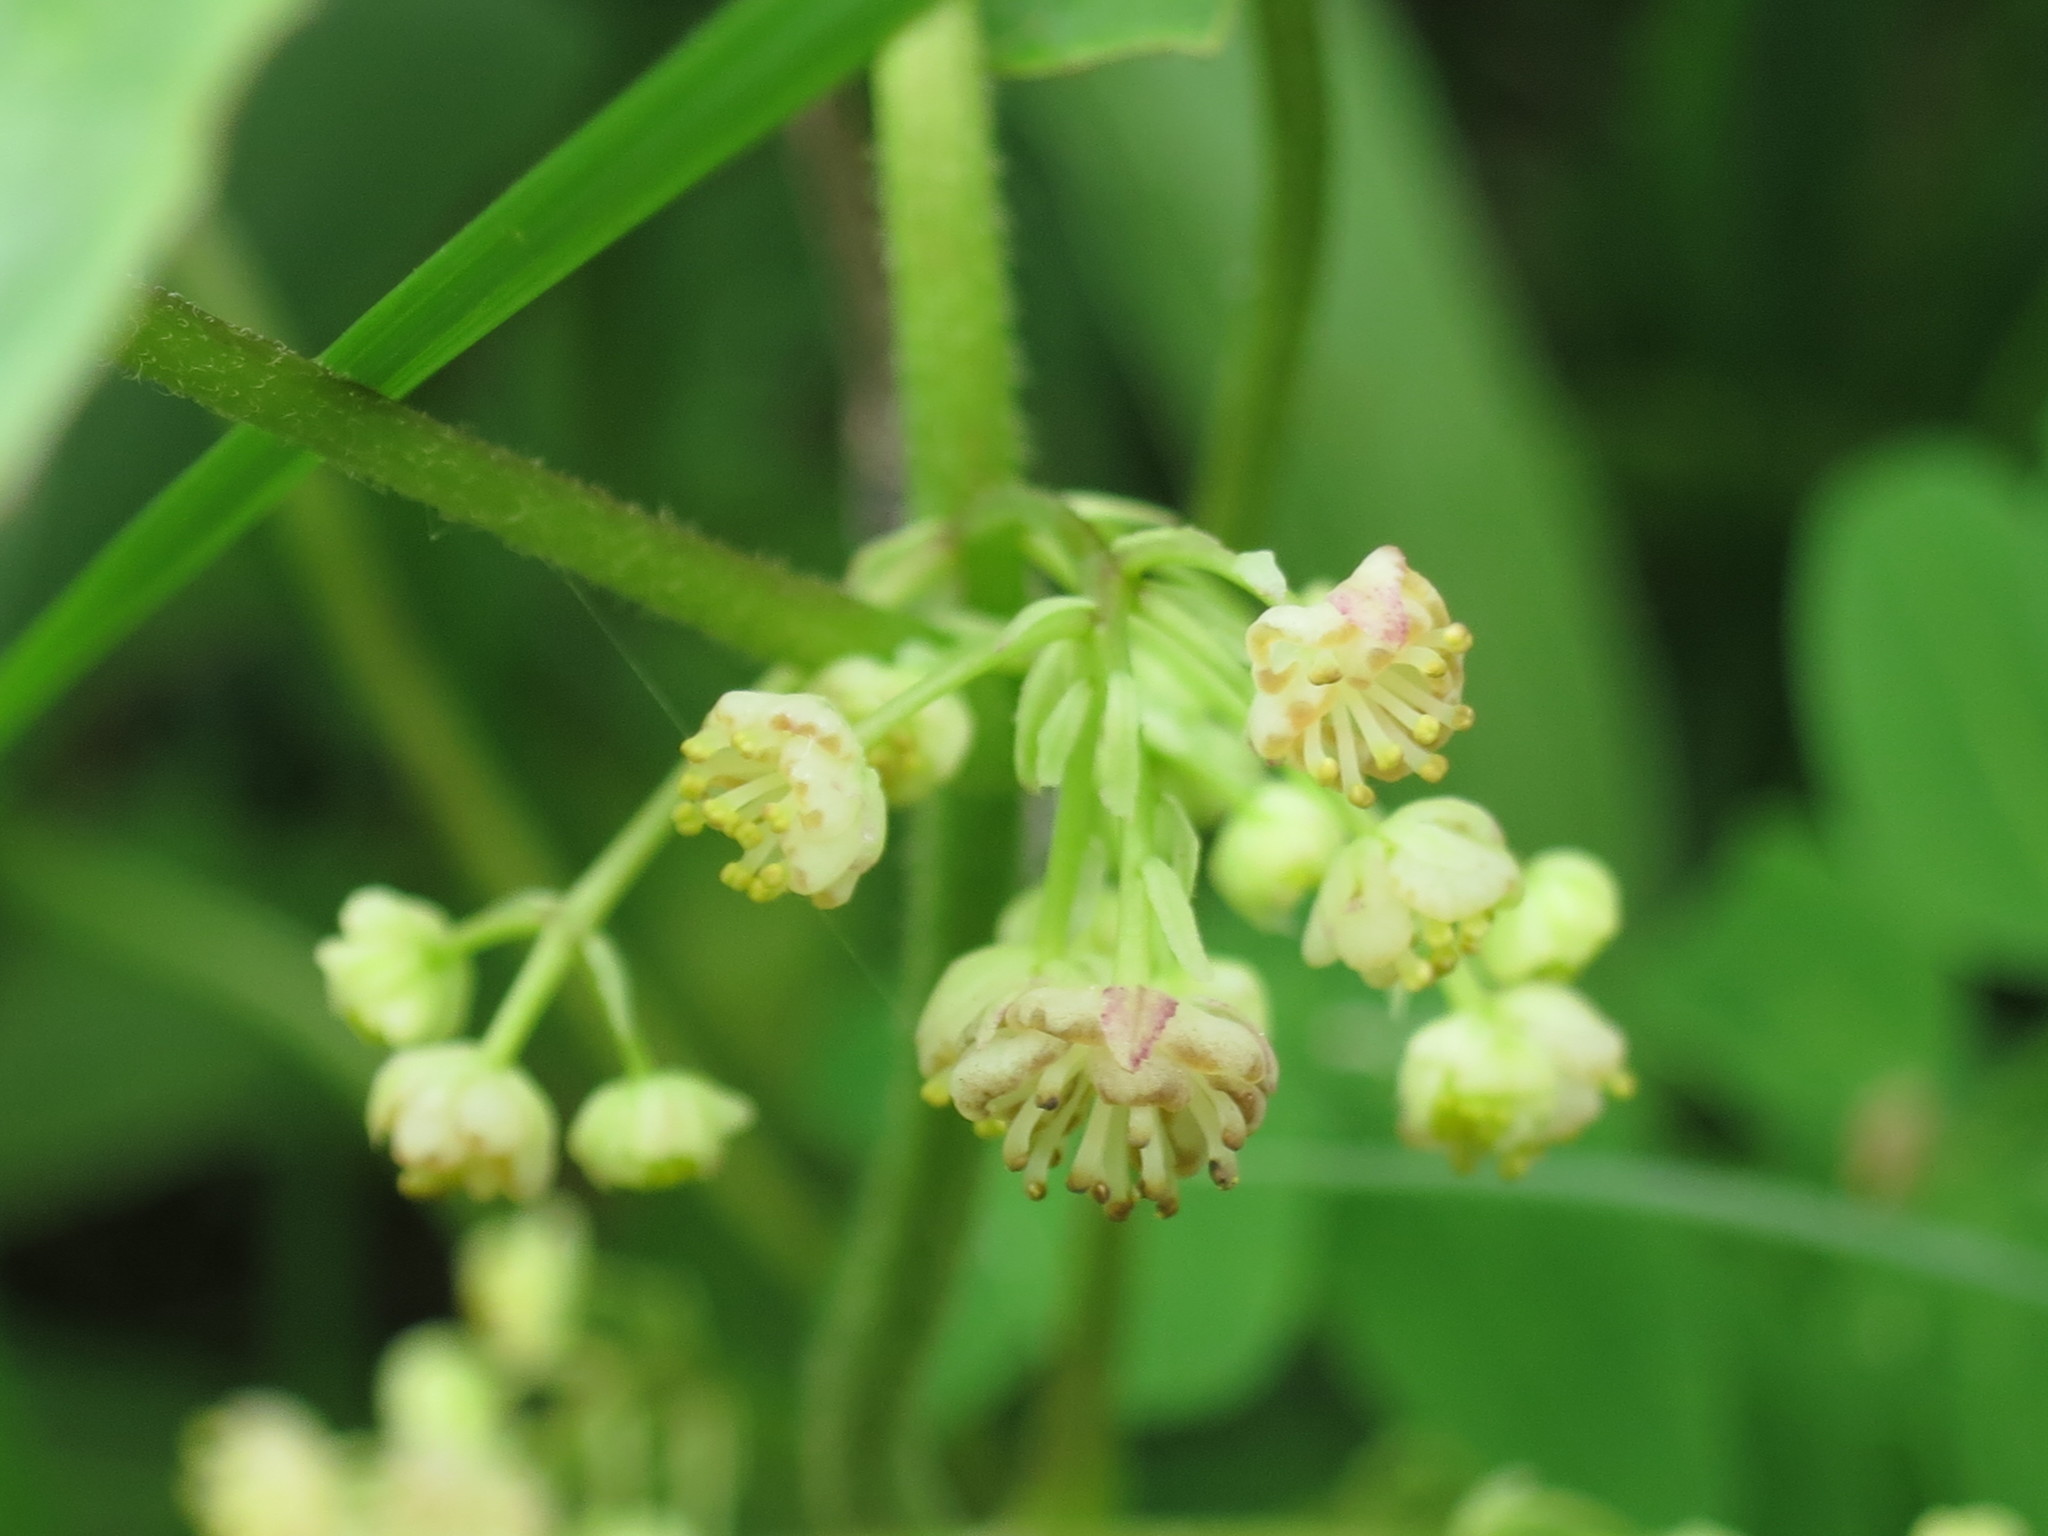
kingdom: Plantae
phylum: Tracheophyta
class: Magnoliopsida
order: Ranunculales
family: Menispermaceae
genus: Menispermum
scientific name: Menispermum dauricum
